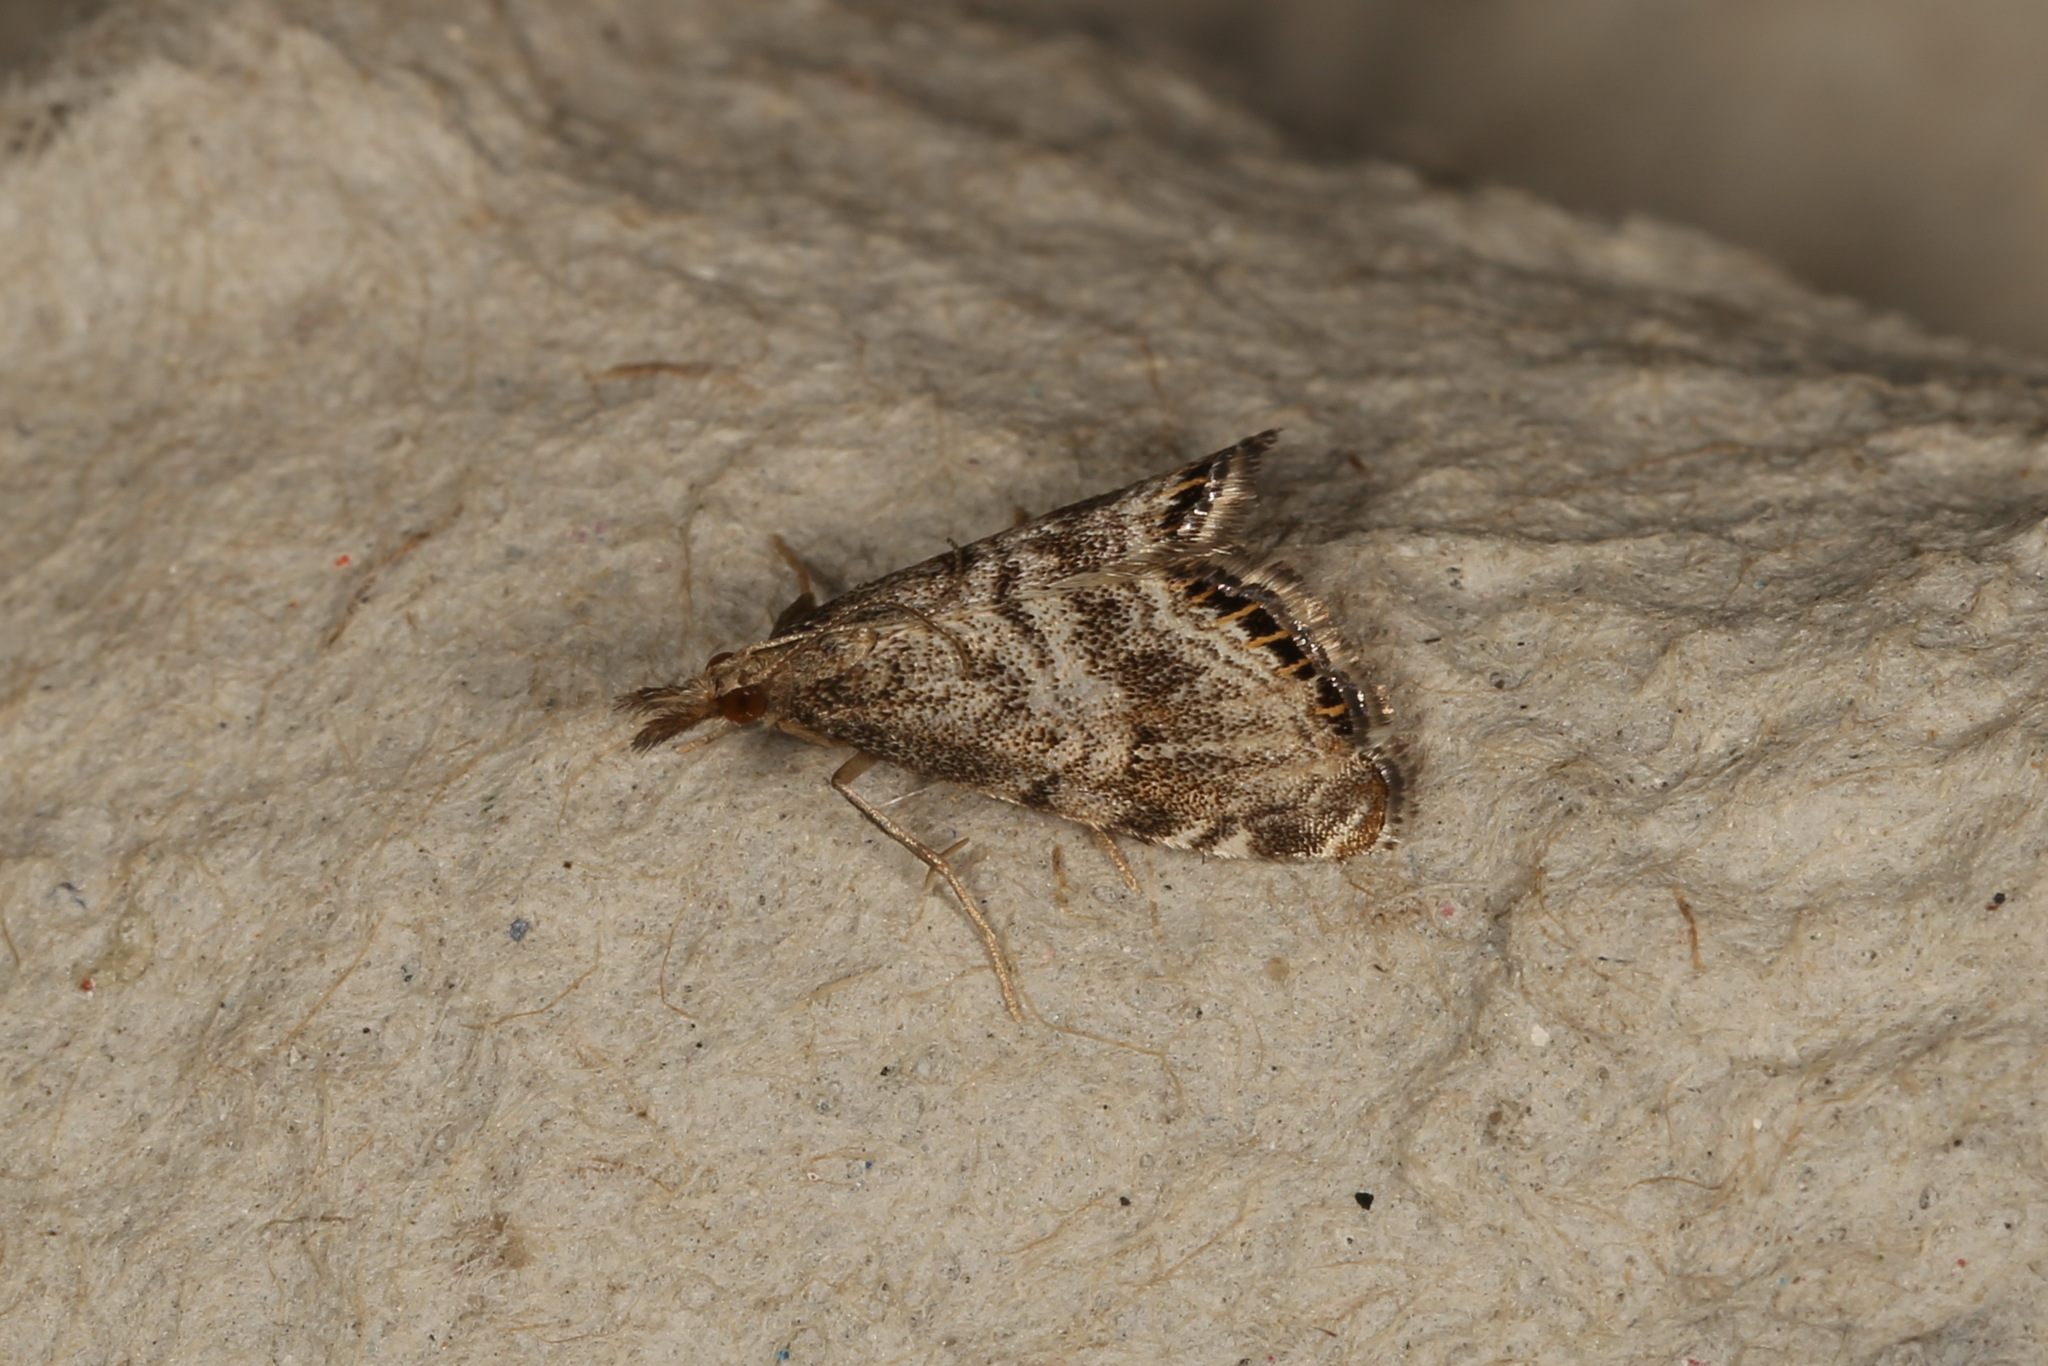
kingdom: Animalia
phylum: Arthropoda
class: Insecta
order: Lepidoptera
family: Crambidae
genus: Glaucocharis
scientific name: Glaucocharis dilatella
